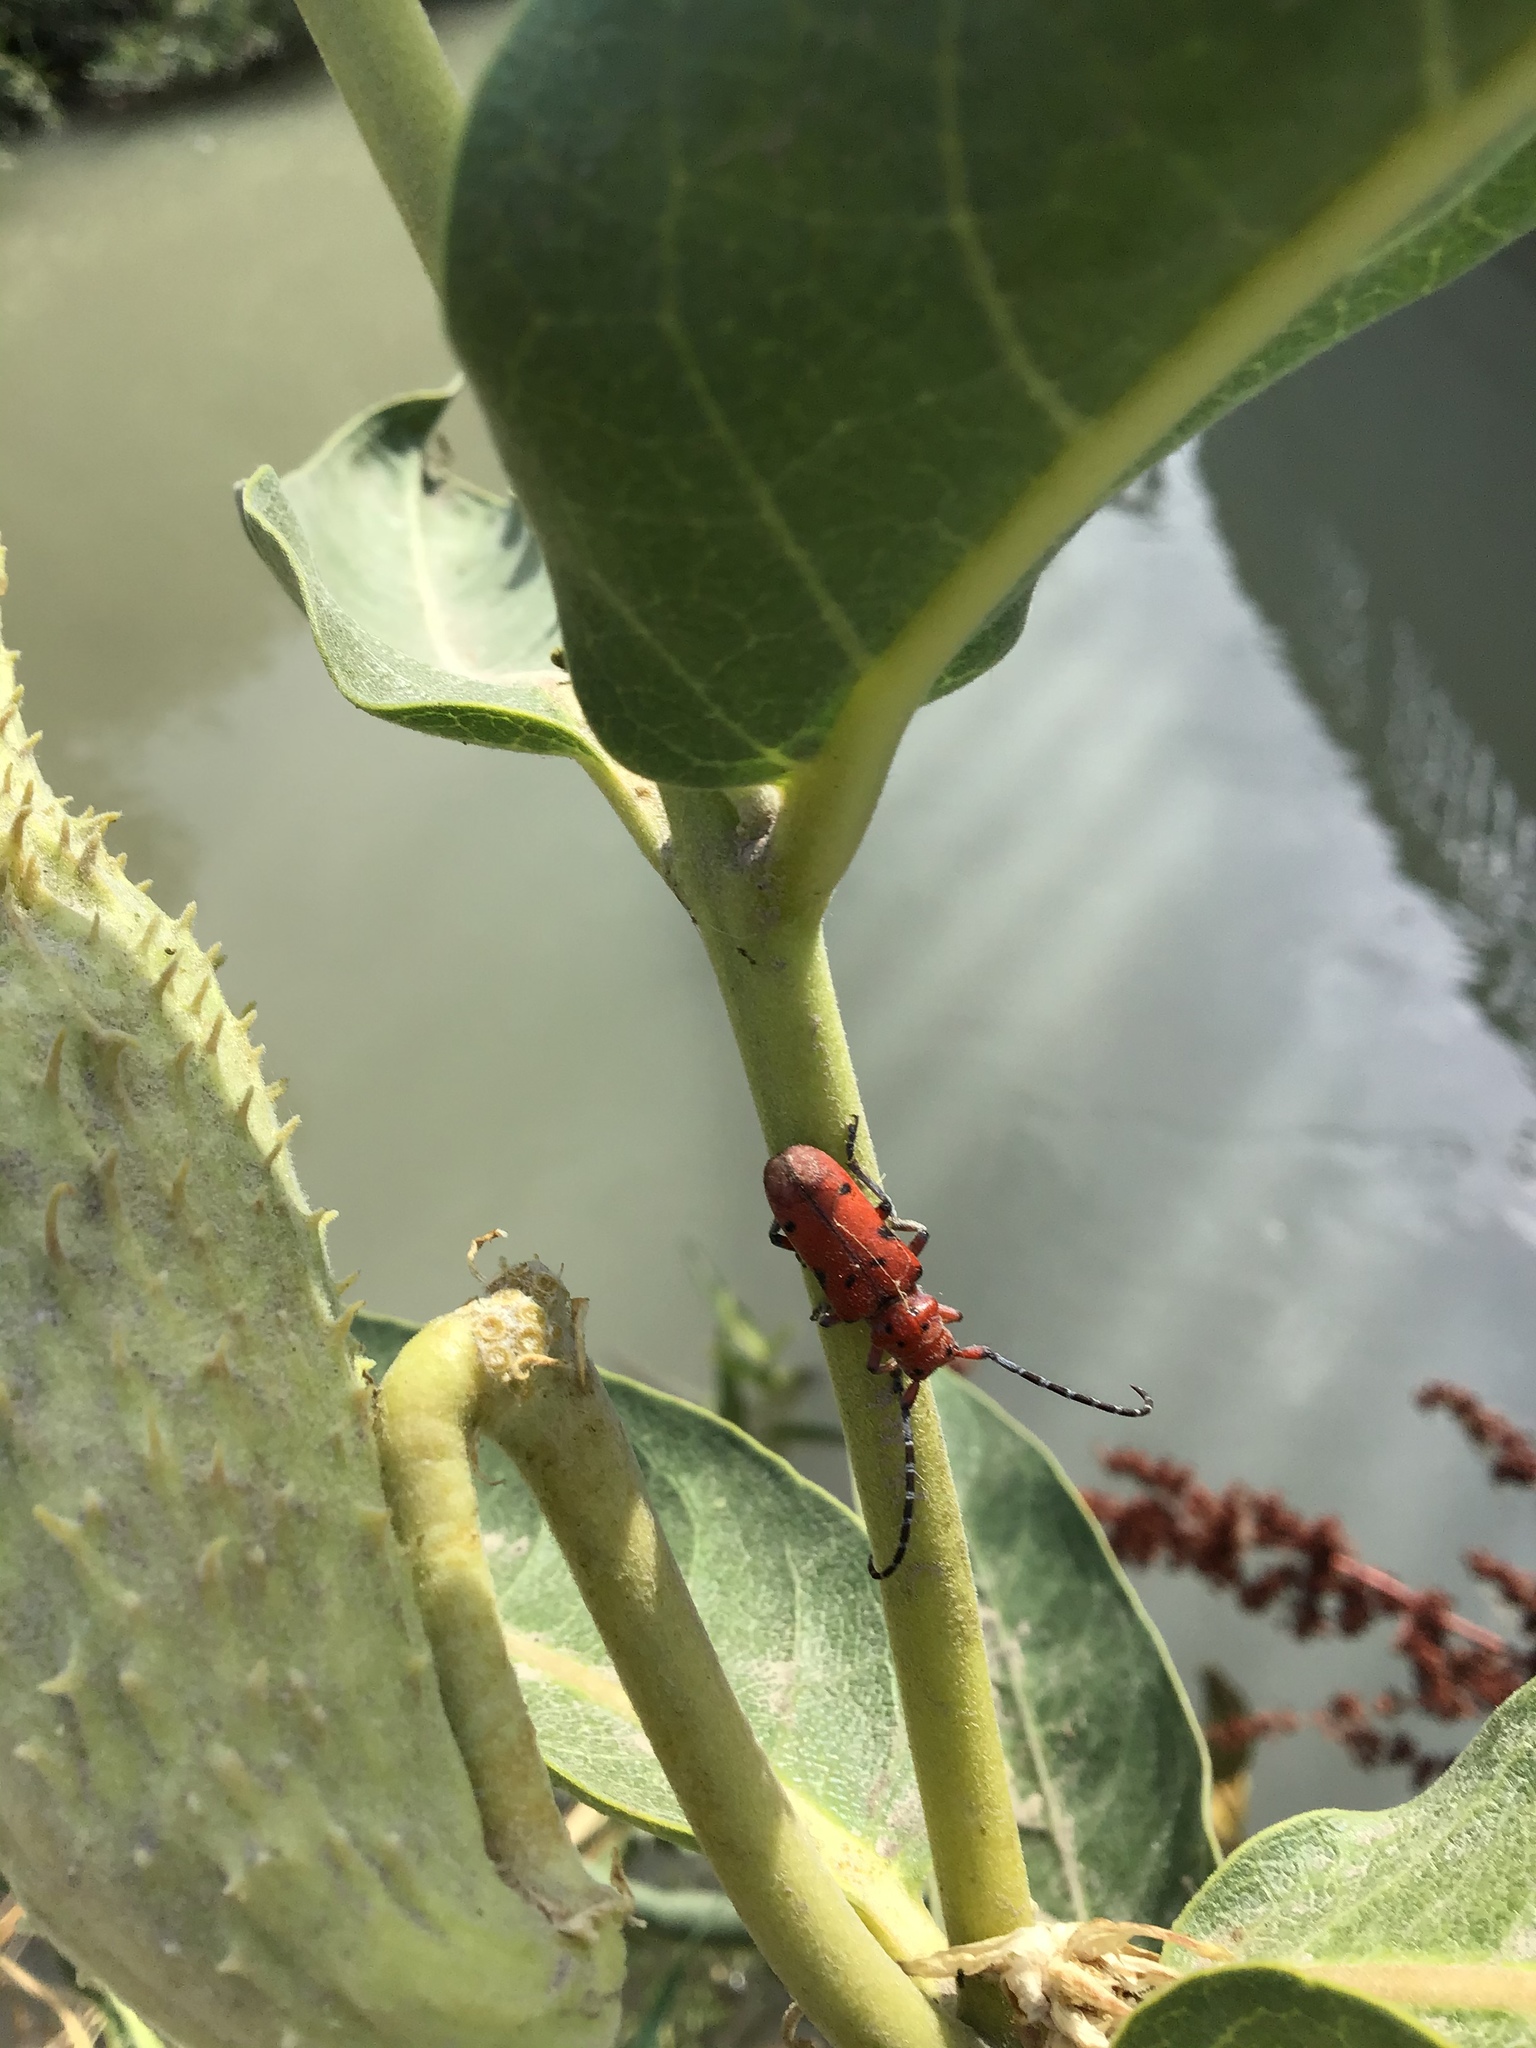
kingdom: Animalia
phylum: Arthropoda
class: Insecta
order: Coleoptera
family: Cerambycidae
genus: Tetraopes
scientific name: Tetraopes femoratus
